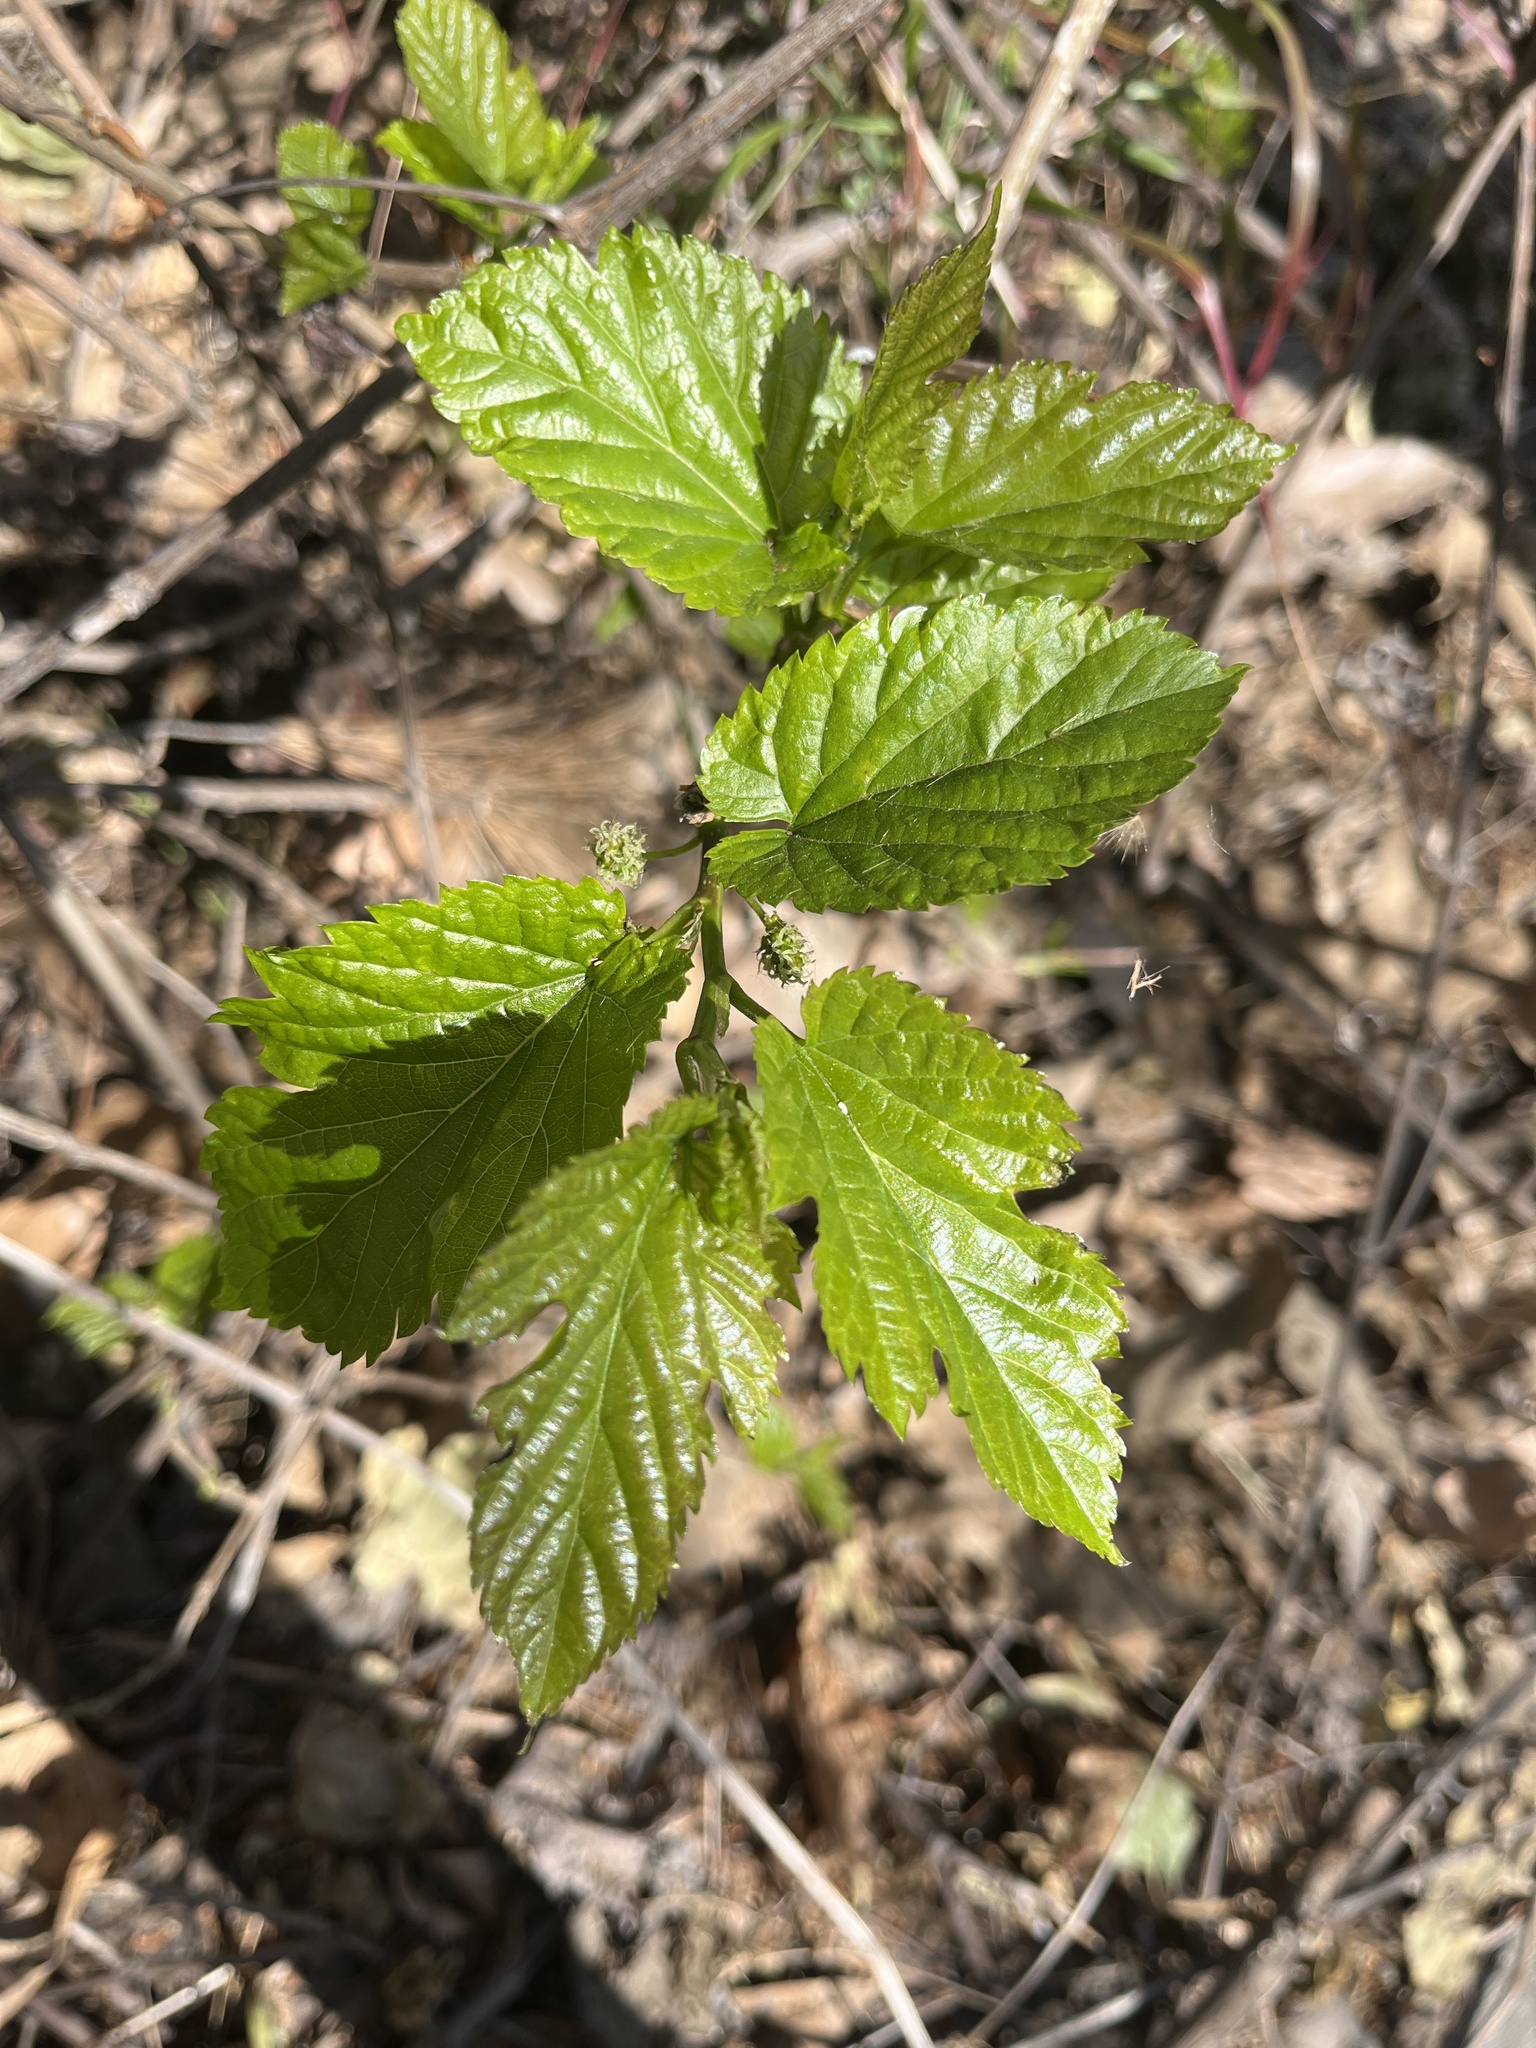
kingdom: Plantae
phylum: Tracheophyta
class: Magnoliopsida
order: Rosales
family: Moraceae
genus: Morus
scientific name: Morus alba
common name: White mulberry
